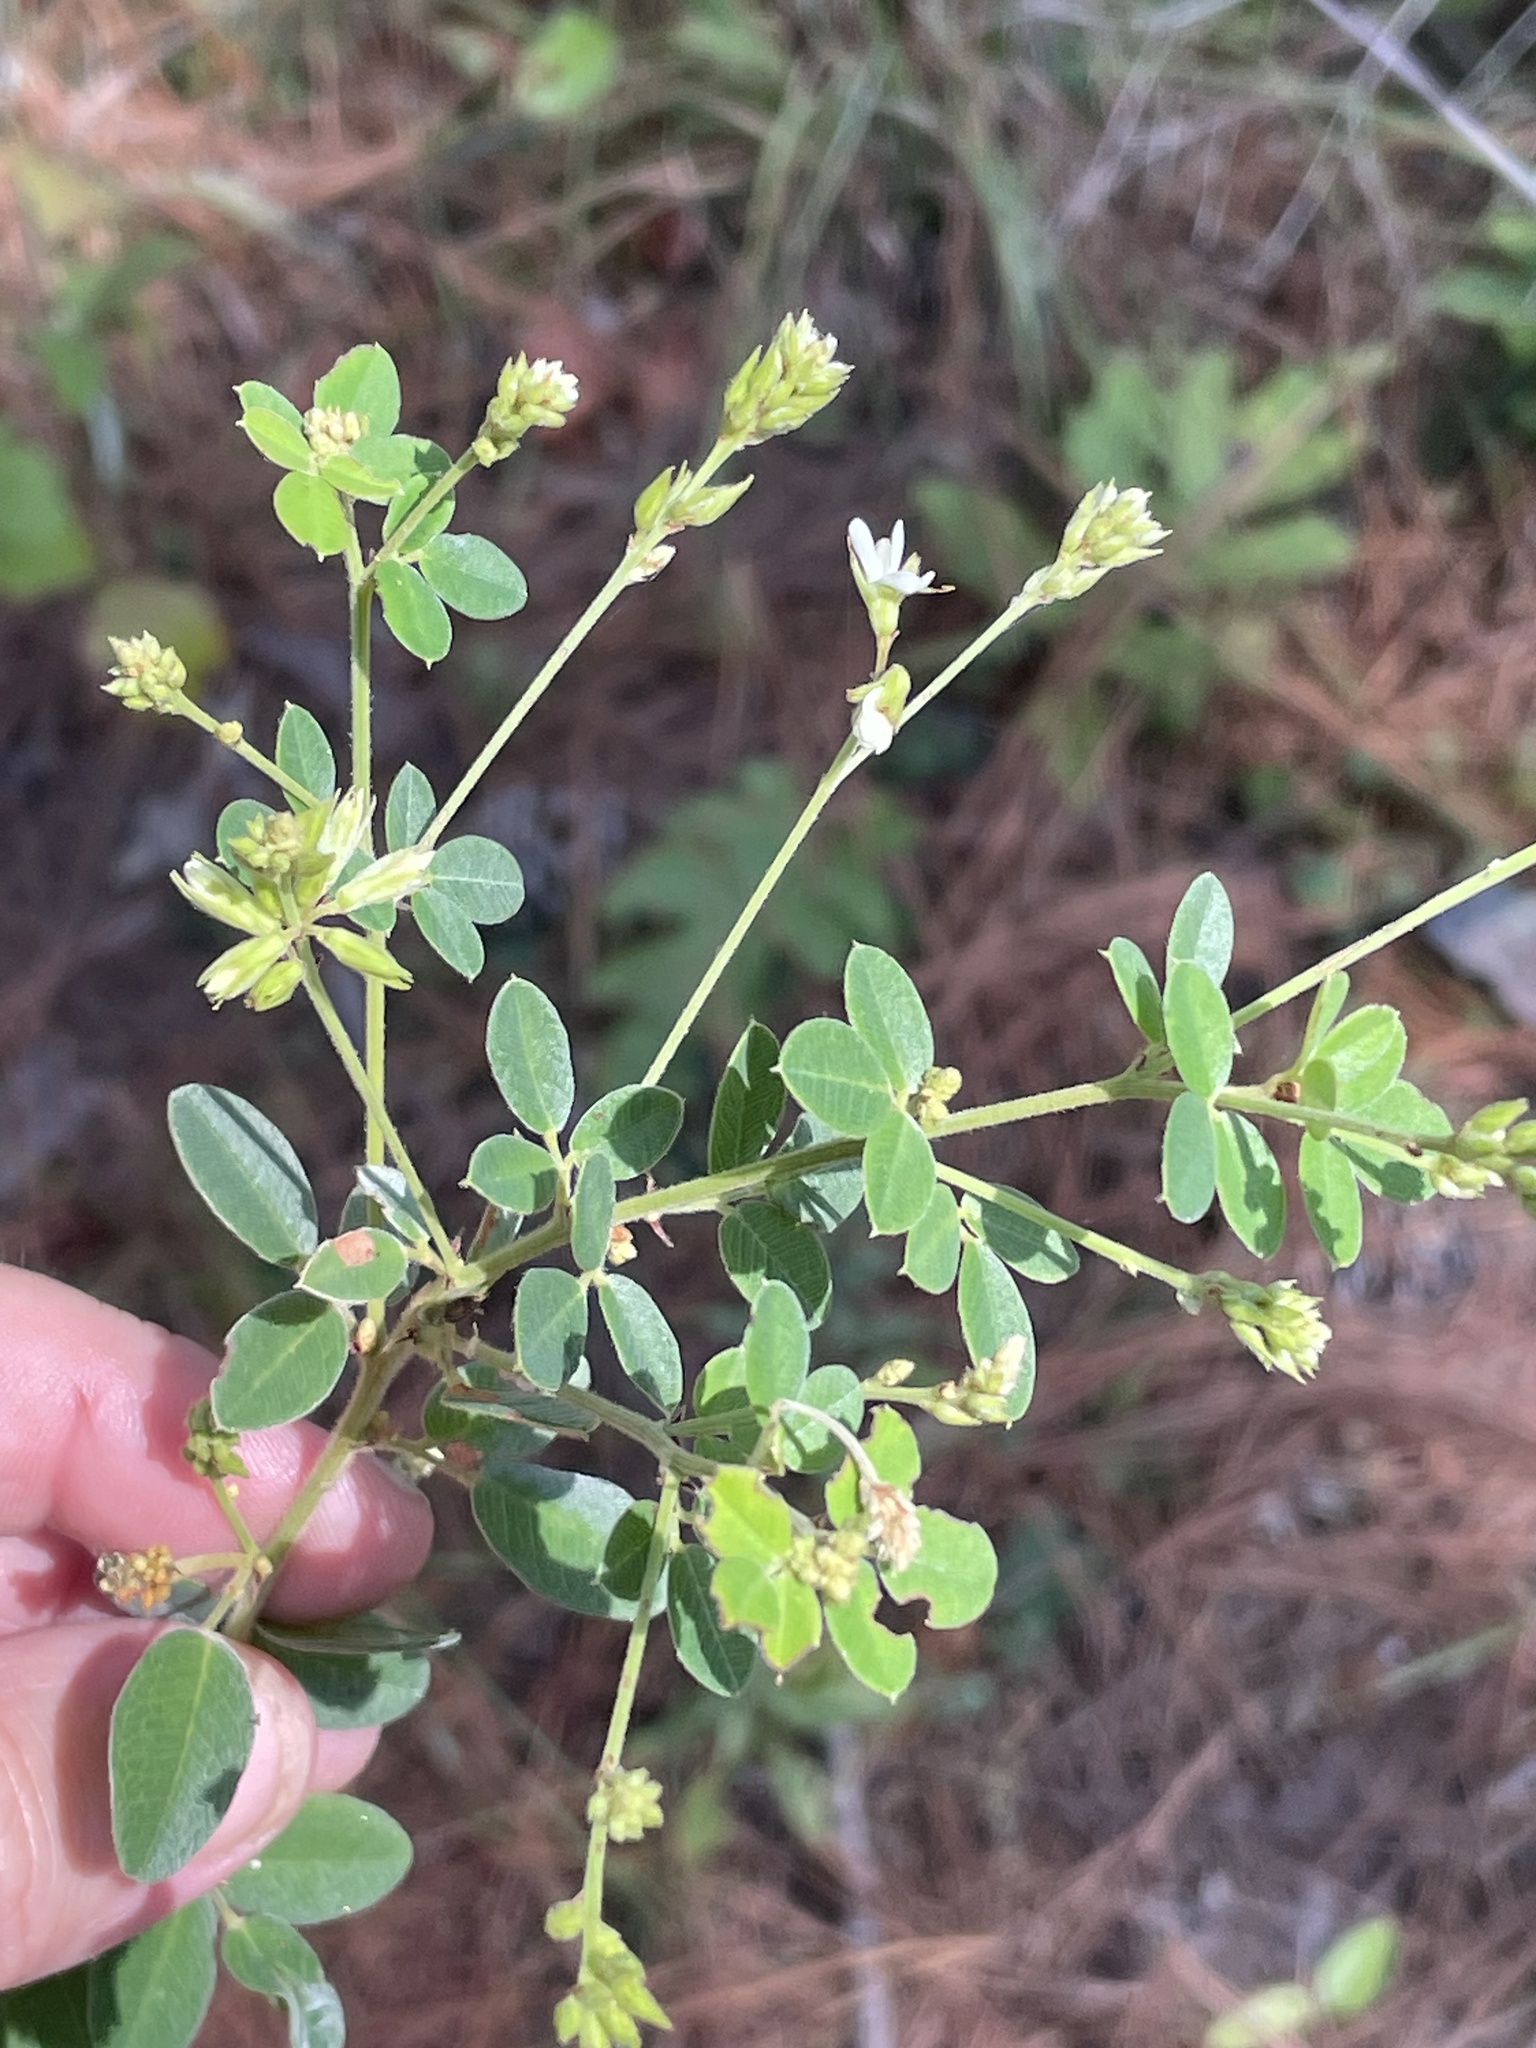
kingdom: Plantae
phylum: Tracheophyta
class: Magnoliopsida
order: Fabales
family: Fabaceae
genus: Lespedeza
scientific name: Lespedeza hirta
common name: Hairy lespedeza
